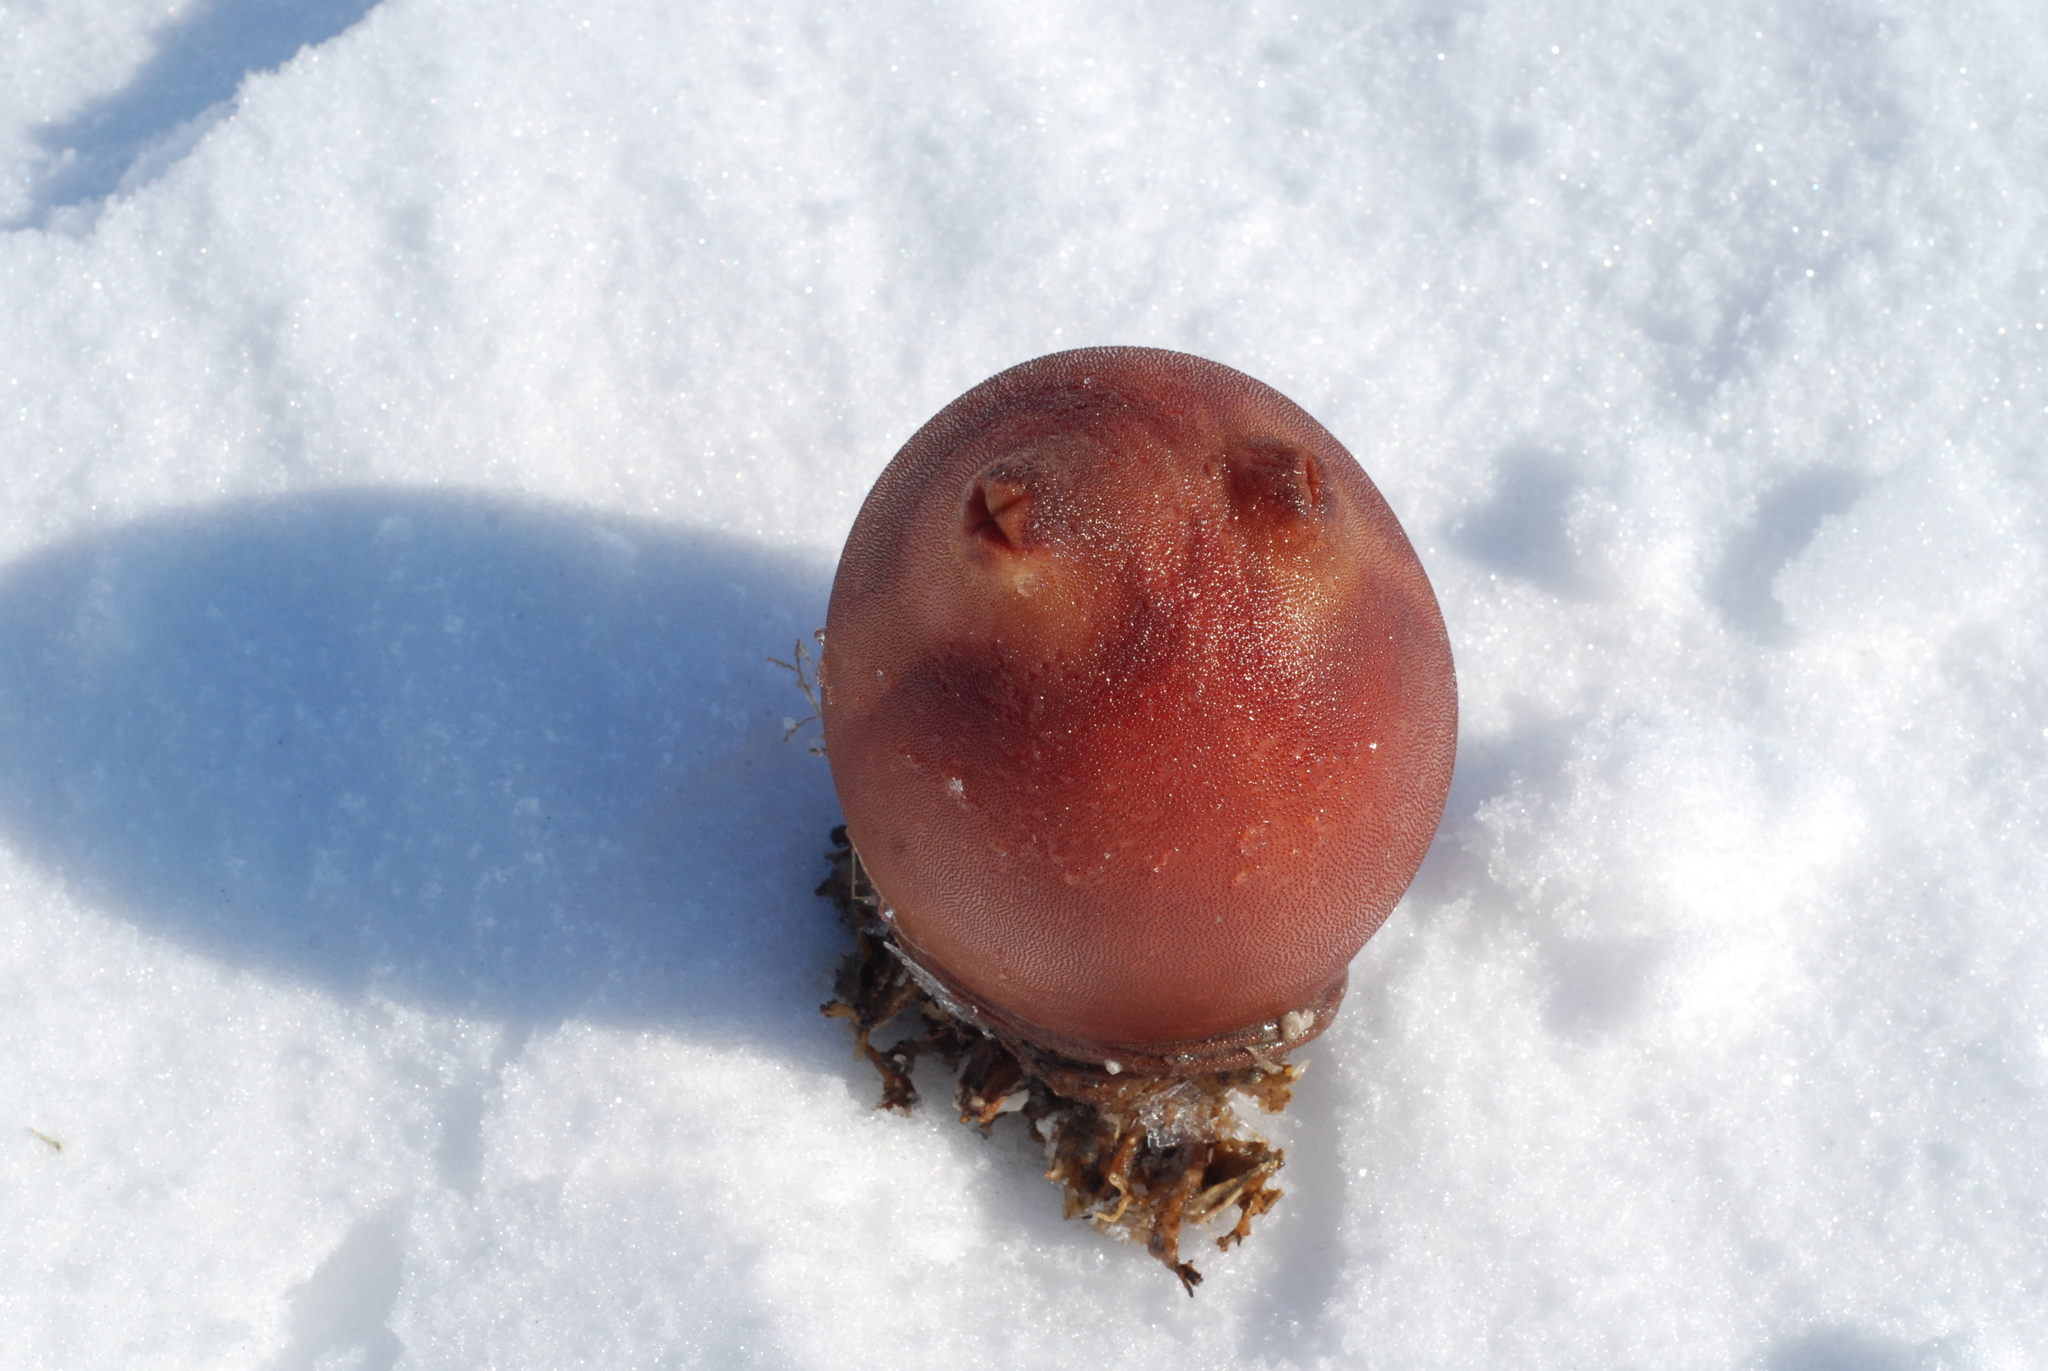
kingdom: Animalia
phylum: Chordata
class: Ascidiacea
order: Stolidobranchia
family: Pyuridae
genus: Halocynthia
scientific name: Halocynthia aurantium
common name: Sea peach
